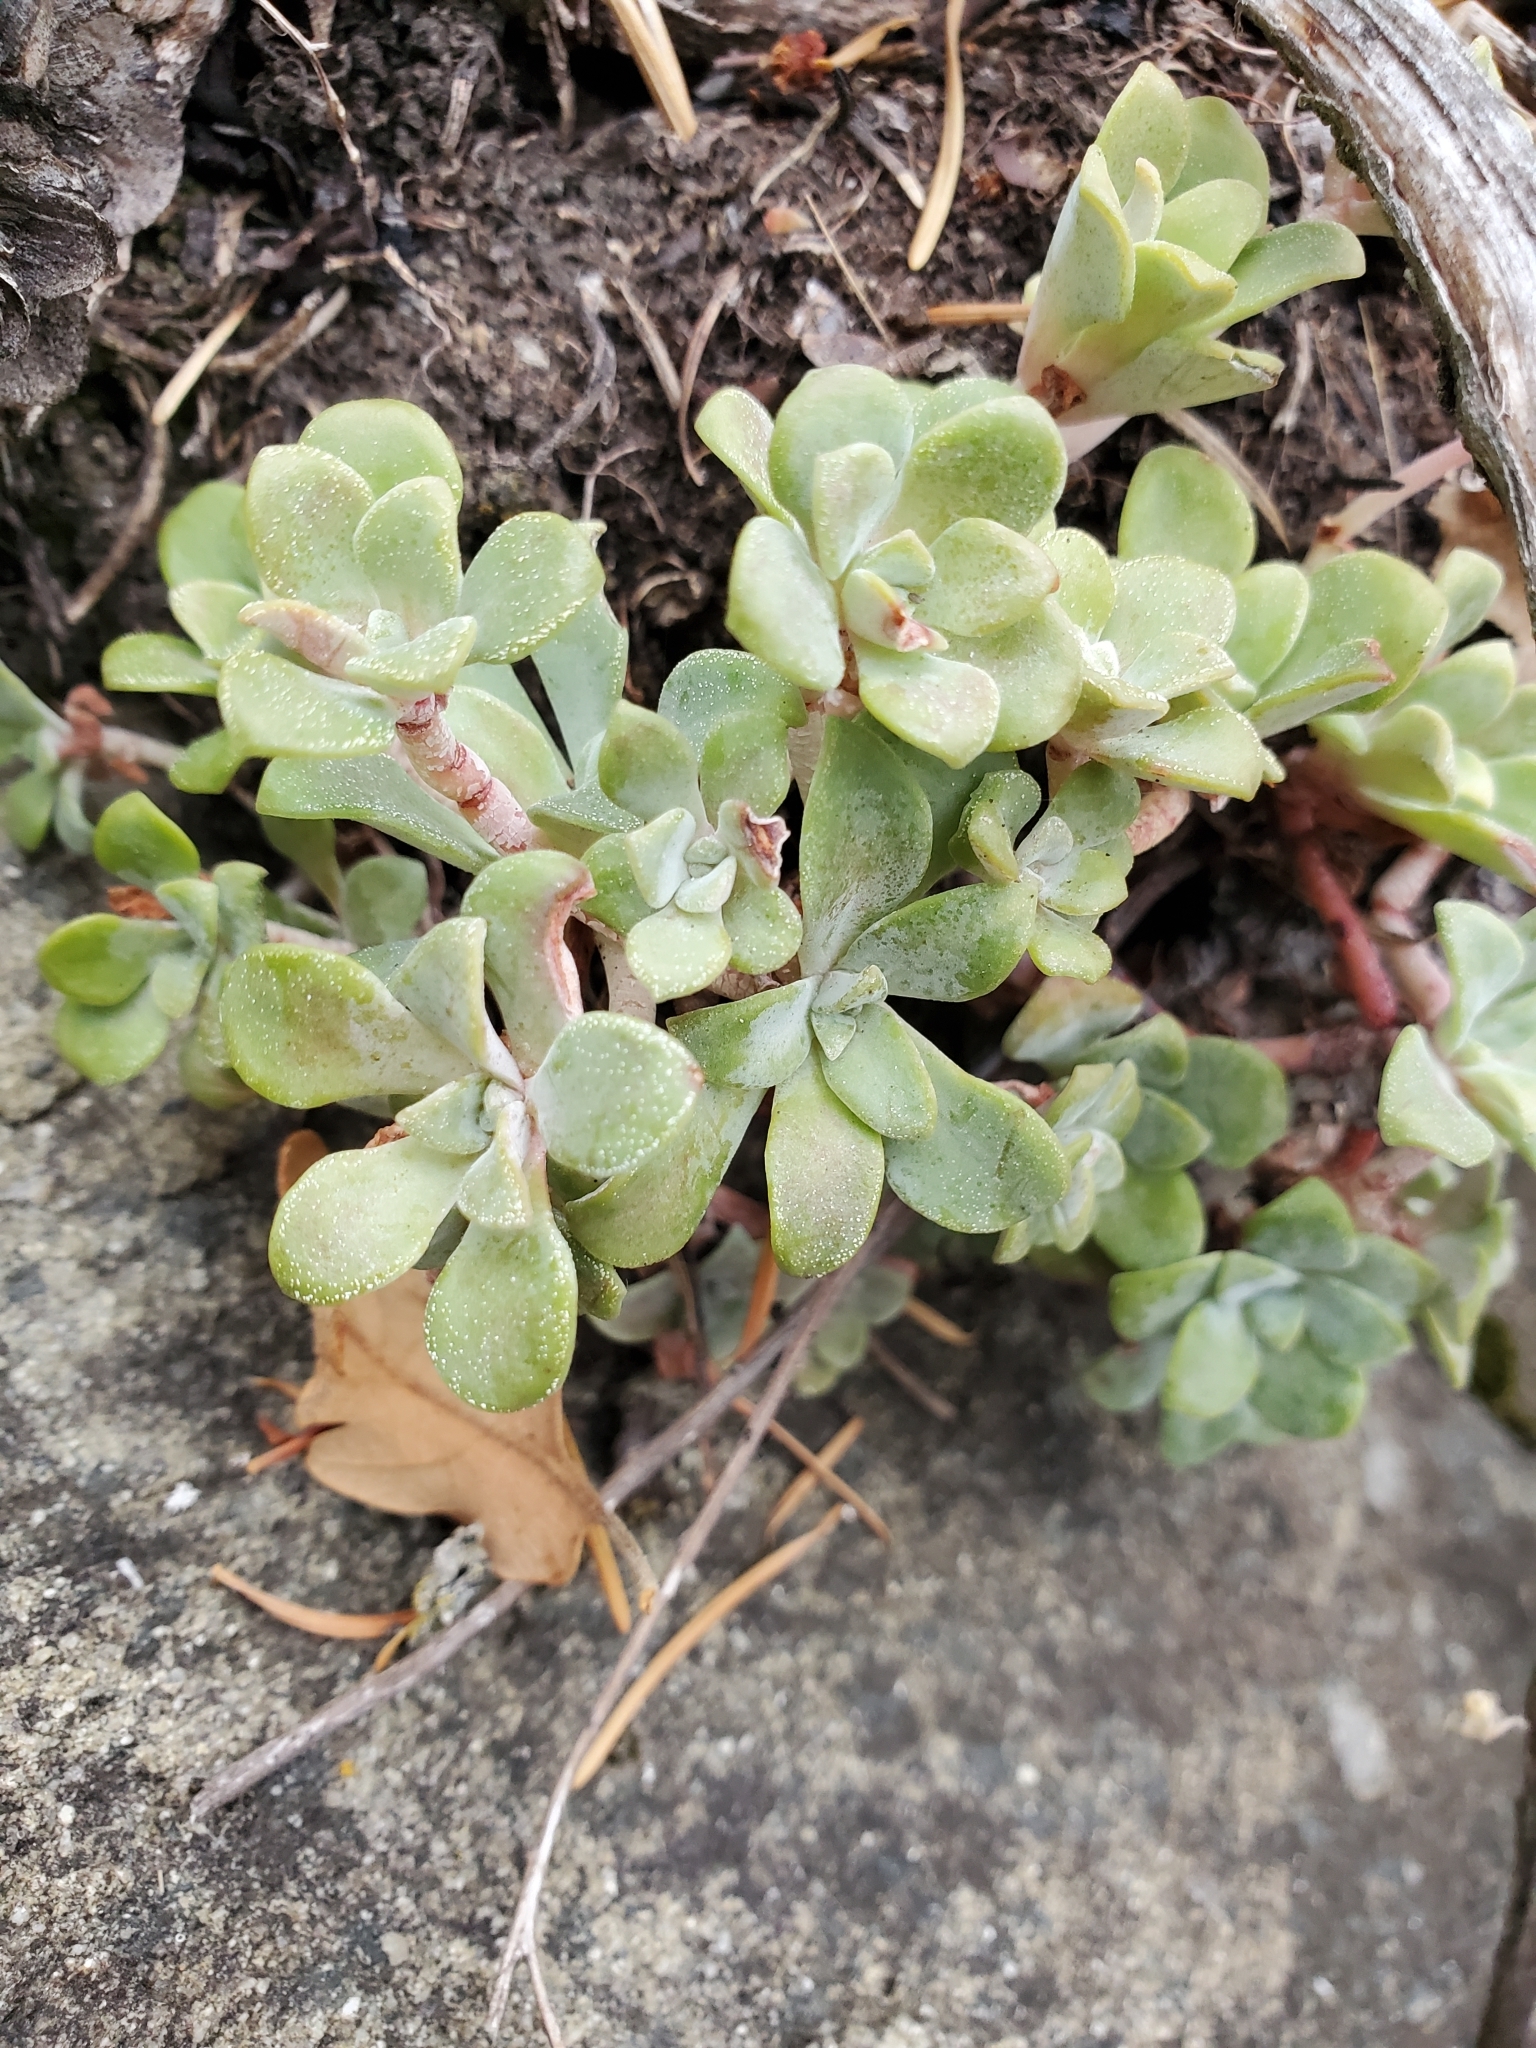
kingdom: Plantae
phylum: Tracheophyta
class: Magnoliopsida
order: Saxifragales
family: Crassulaceae
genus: Sedum
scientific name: Sedum spathulifolium
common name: Colorado stonecrop
